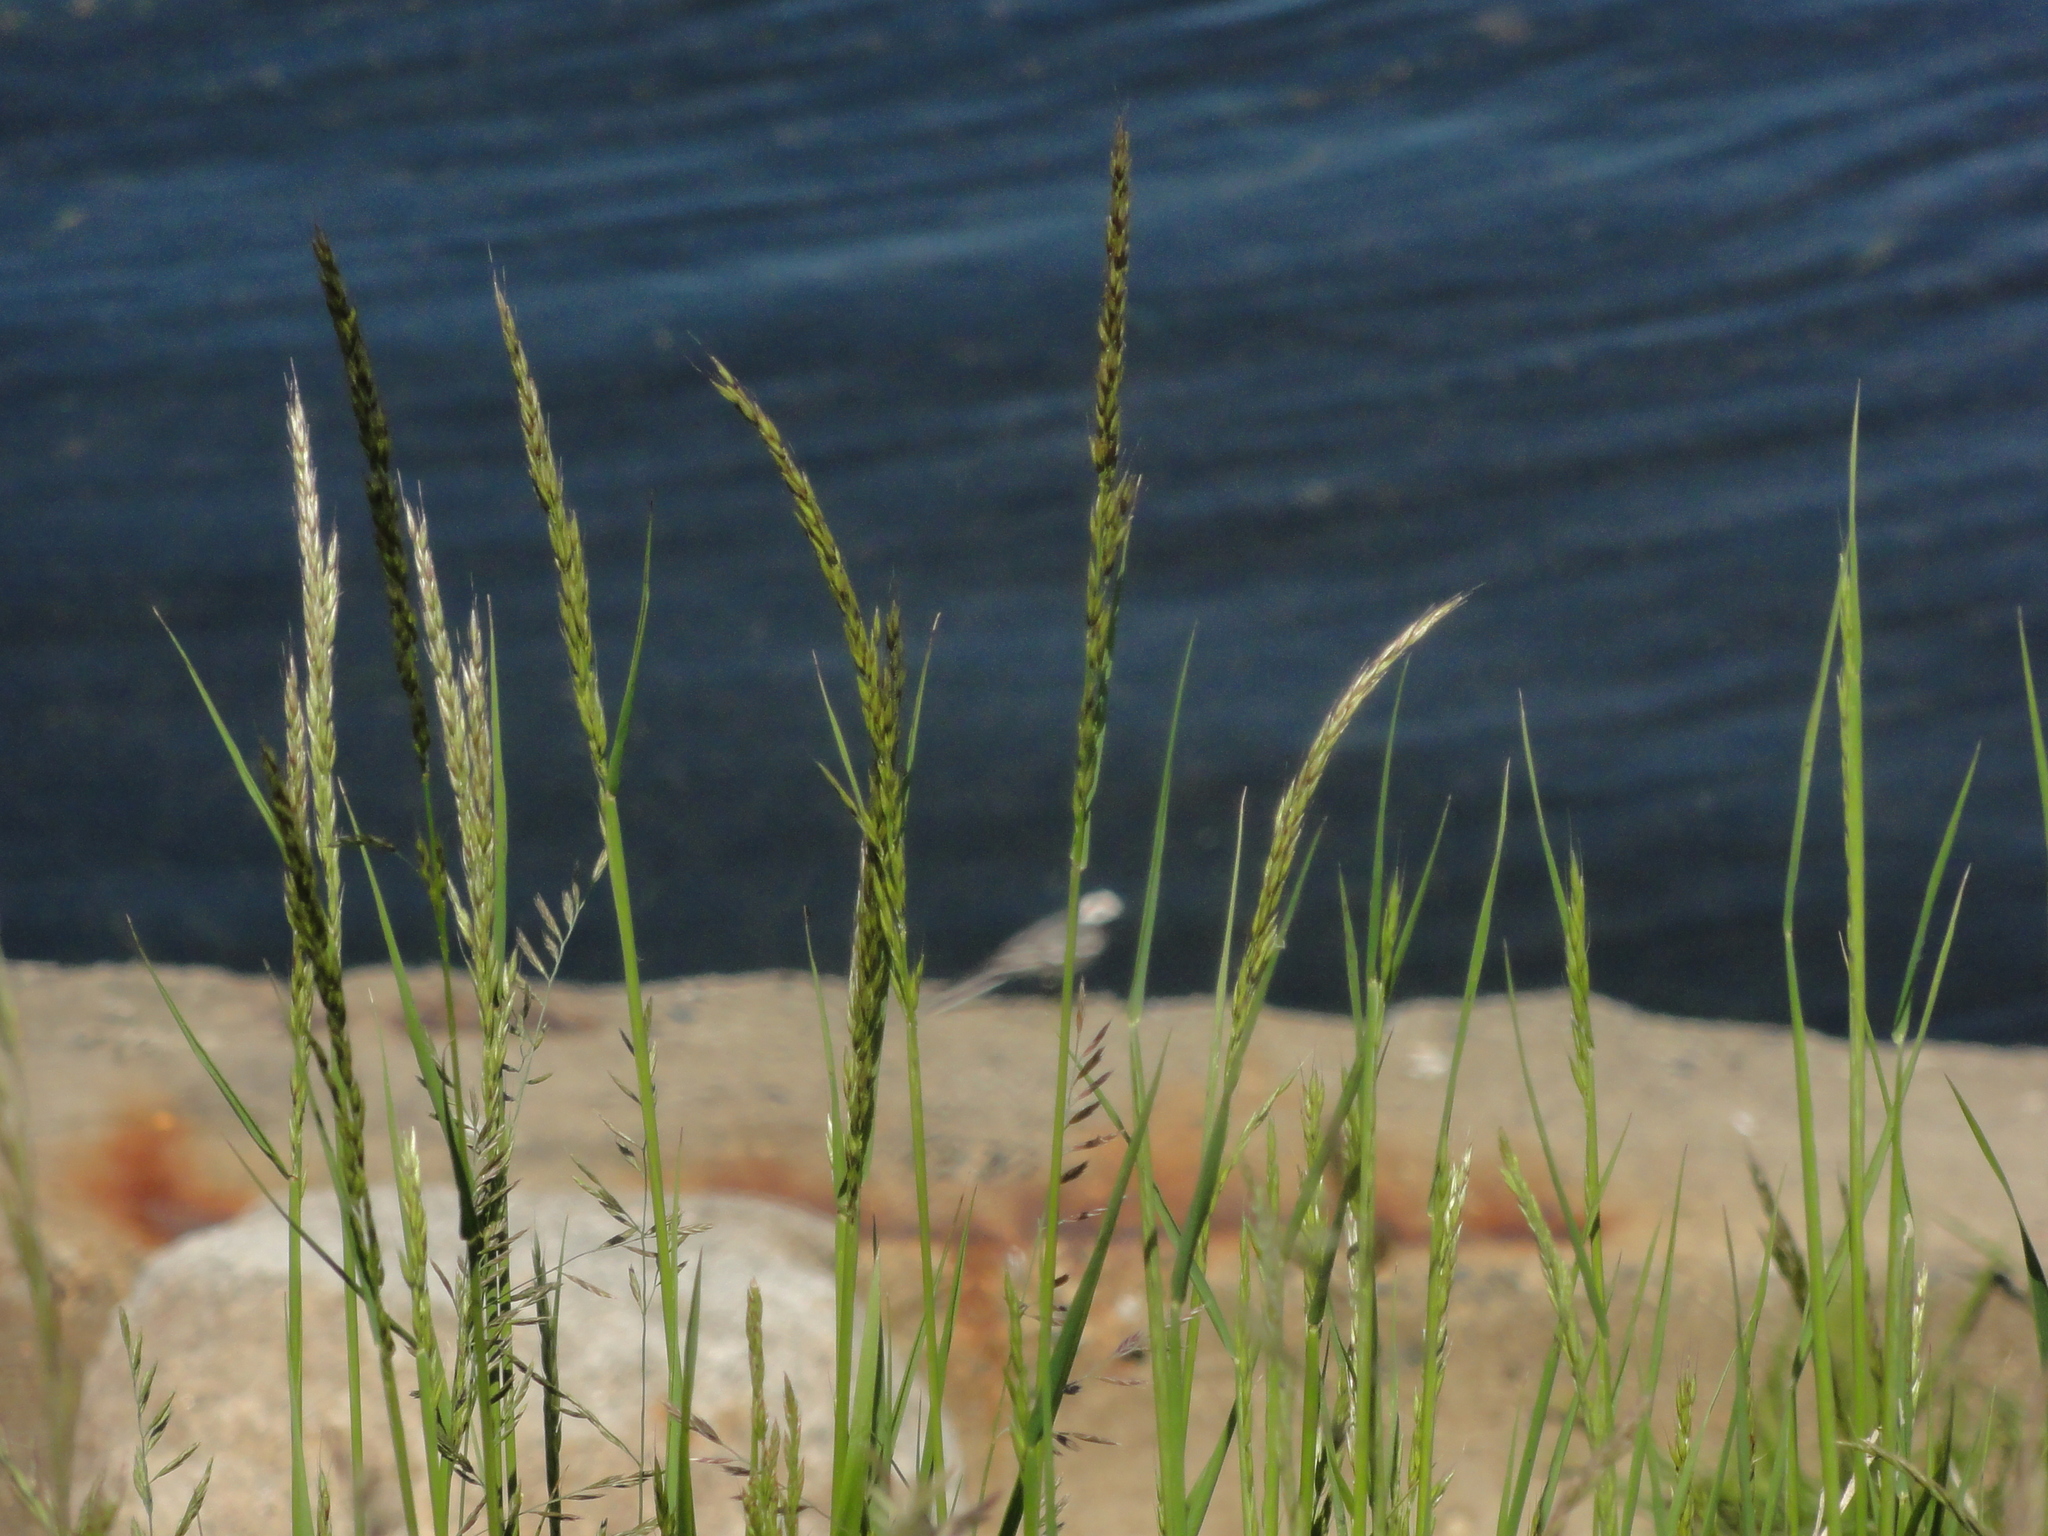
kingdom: Animalia
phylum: Chordata
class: Aves
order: Passeriformes
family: Motacillidae
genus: Motacilla
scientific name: Motacilla alba
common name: White wagtail
